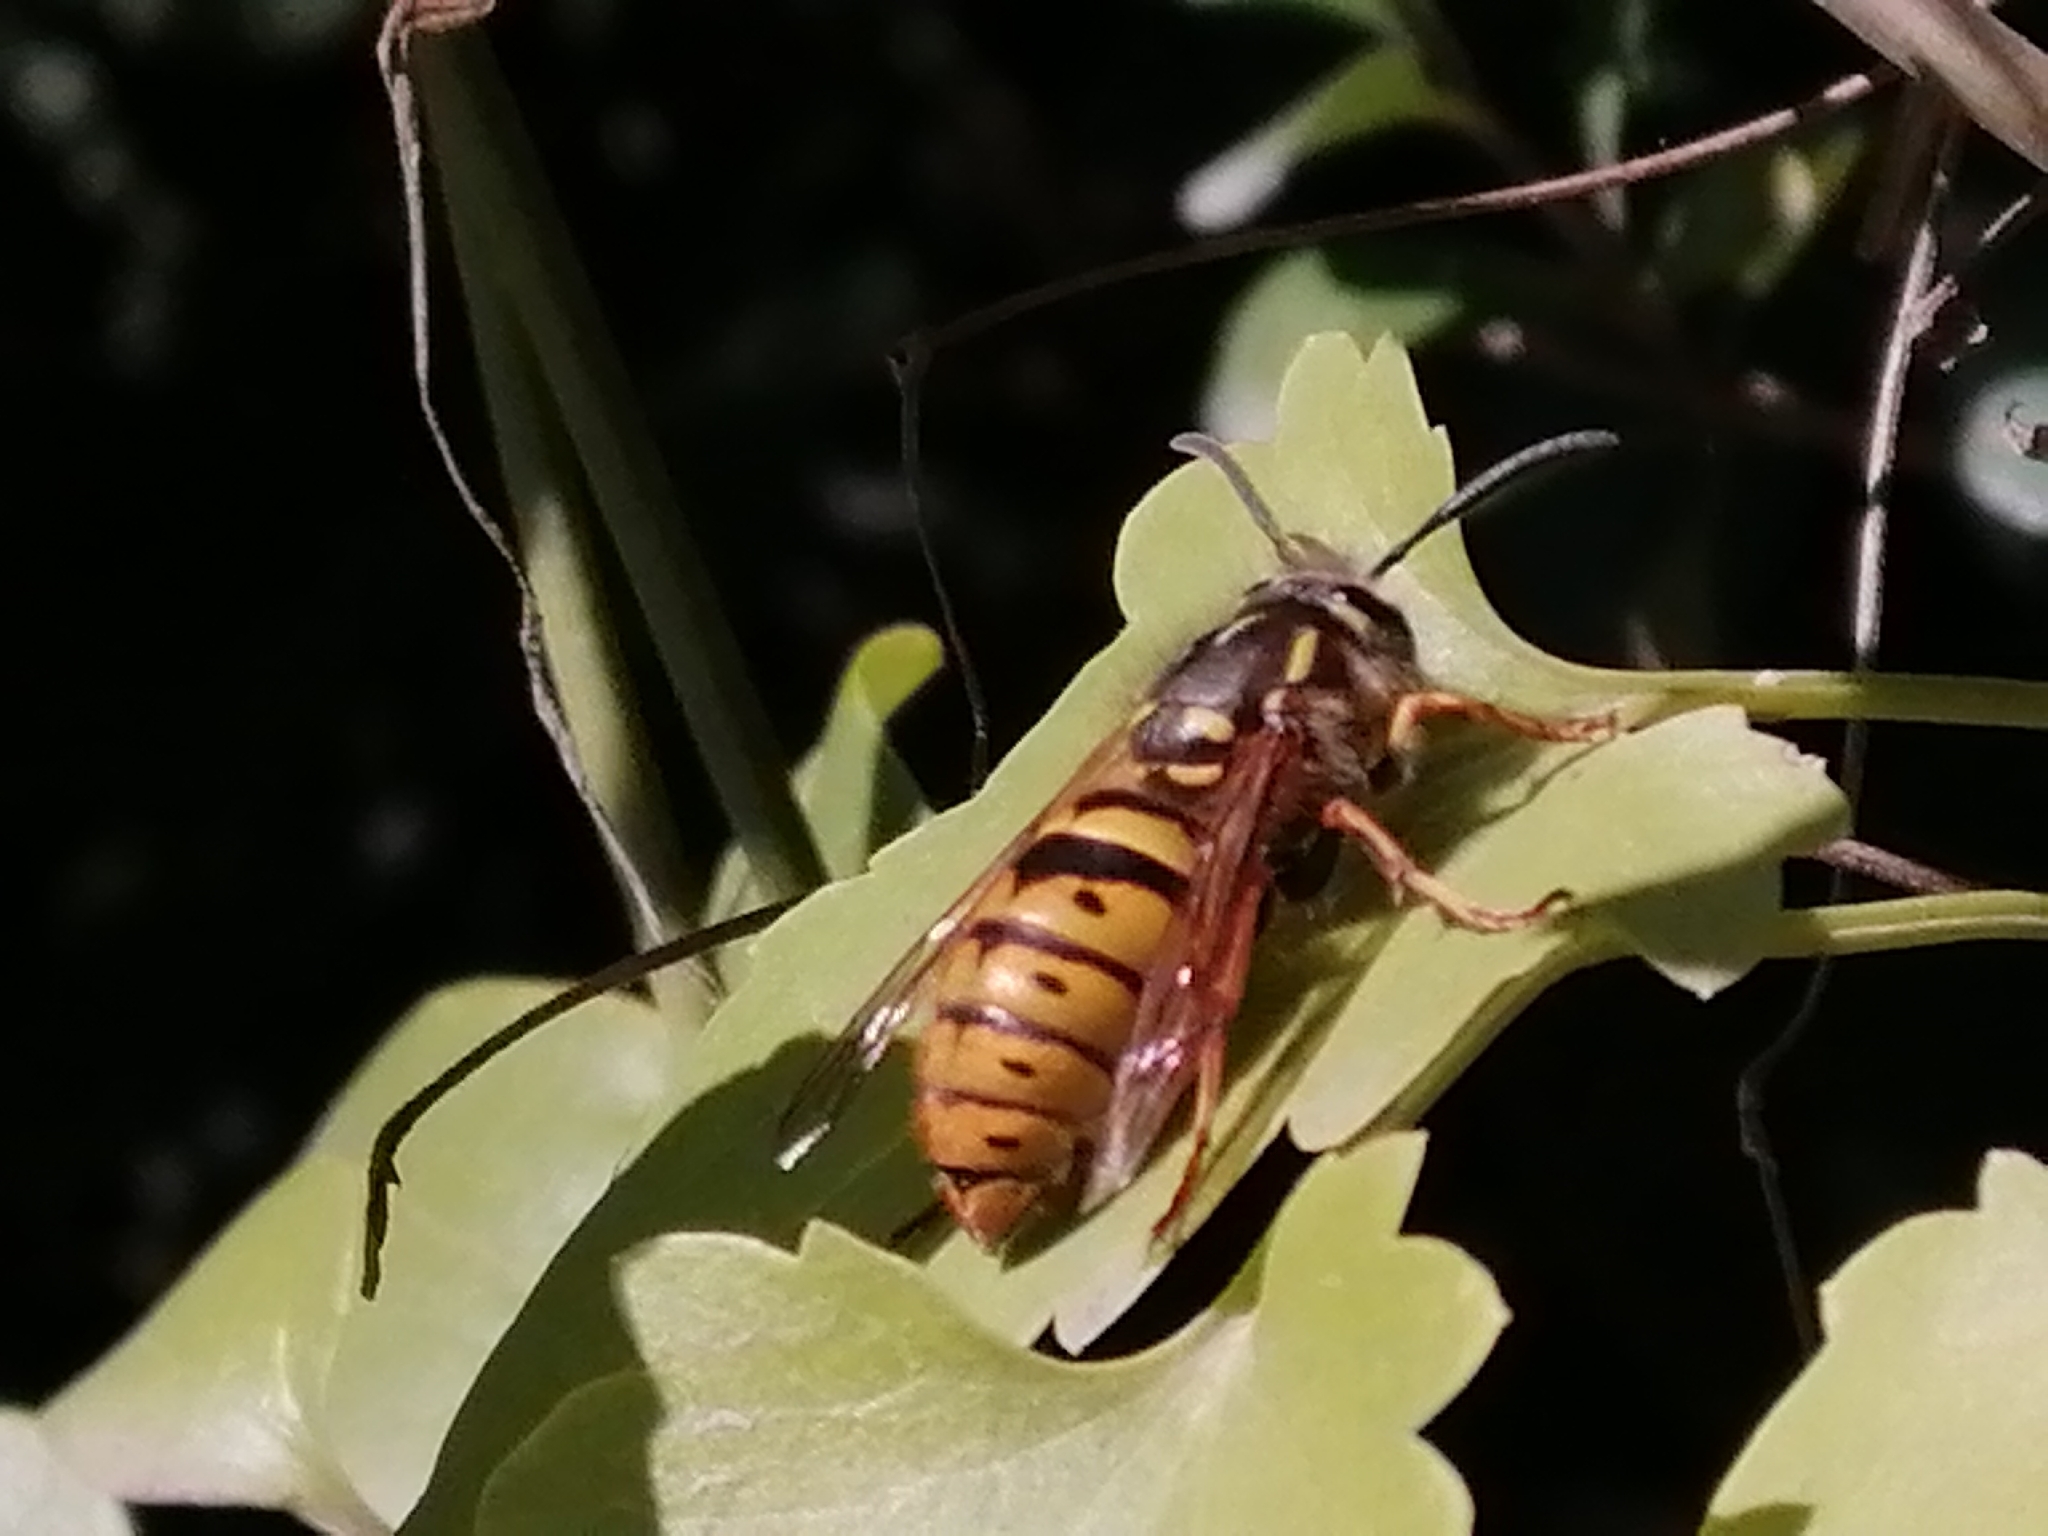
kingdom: Animalia
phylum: Arthropoda
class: Insecta
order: Hymenoptera
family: Vespidae
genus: Vespula
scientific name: Vespula vulgaris
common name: Common wasp
